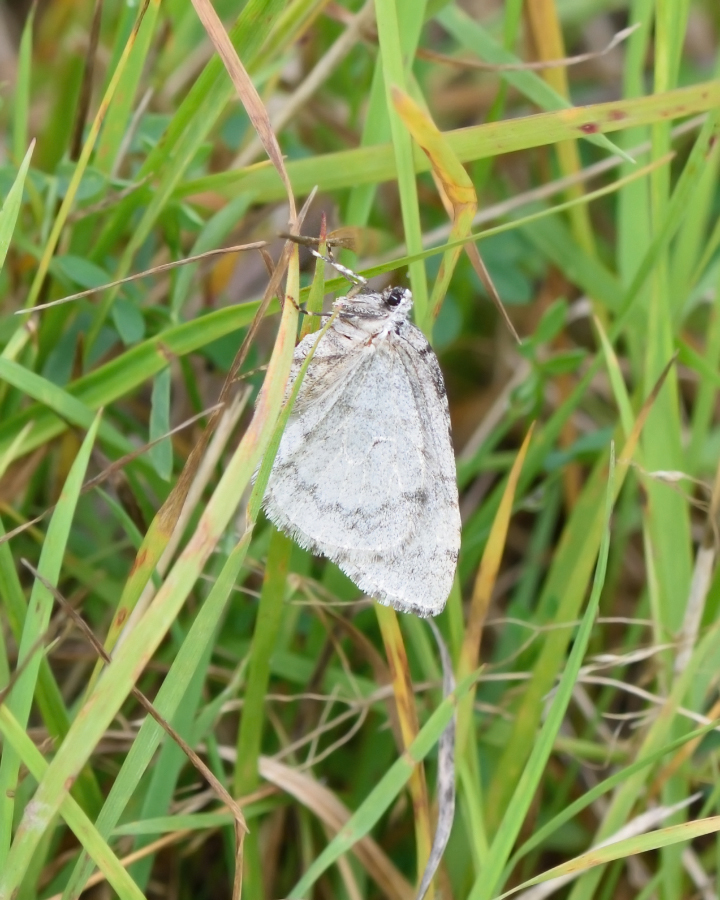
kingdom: Animalia
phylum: Arthropoda
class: Insecta
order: Lepidoptera
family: Geometridae
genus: Epirrita
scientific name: Epirrita autumnata
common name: Autumnal moth
